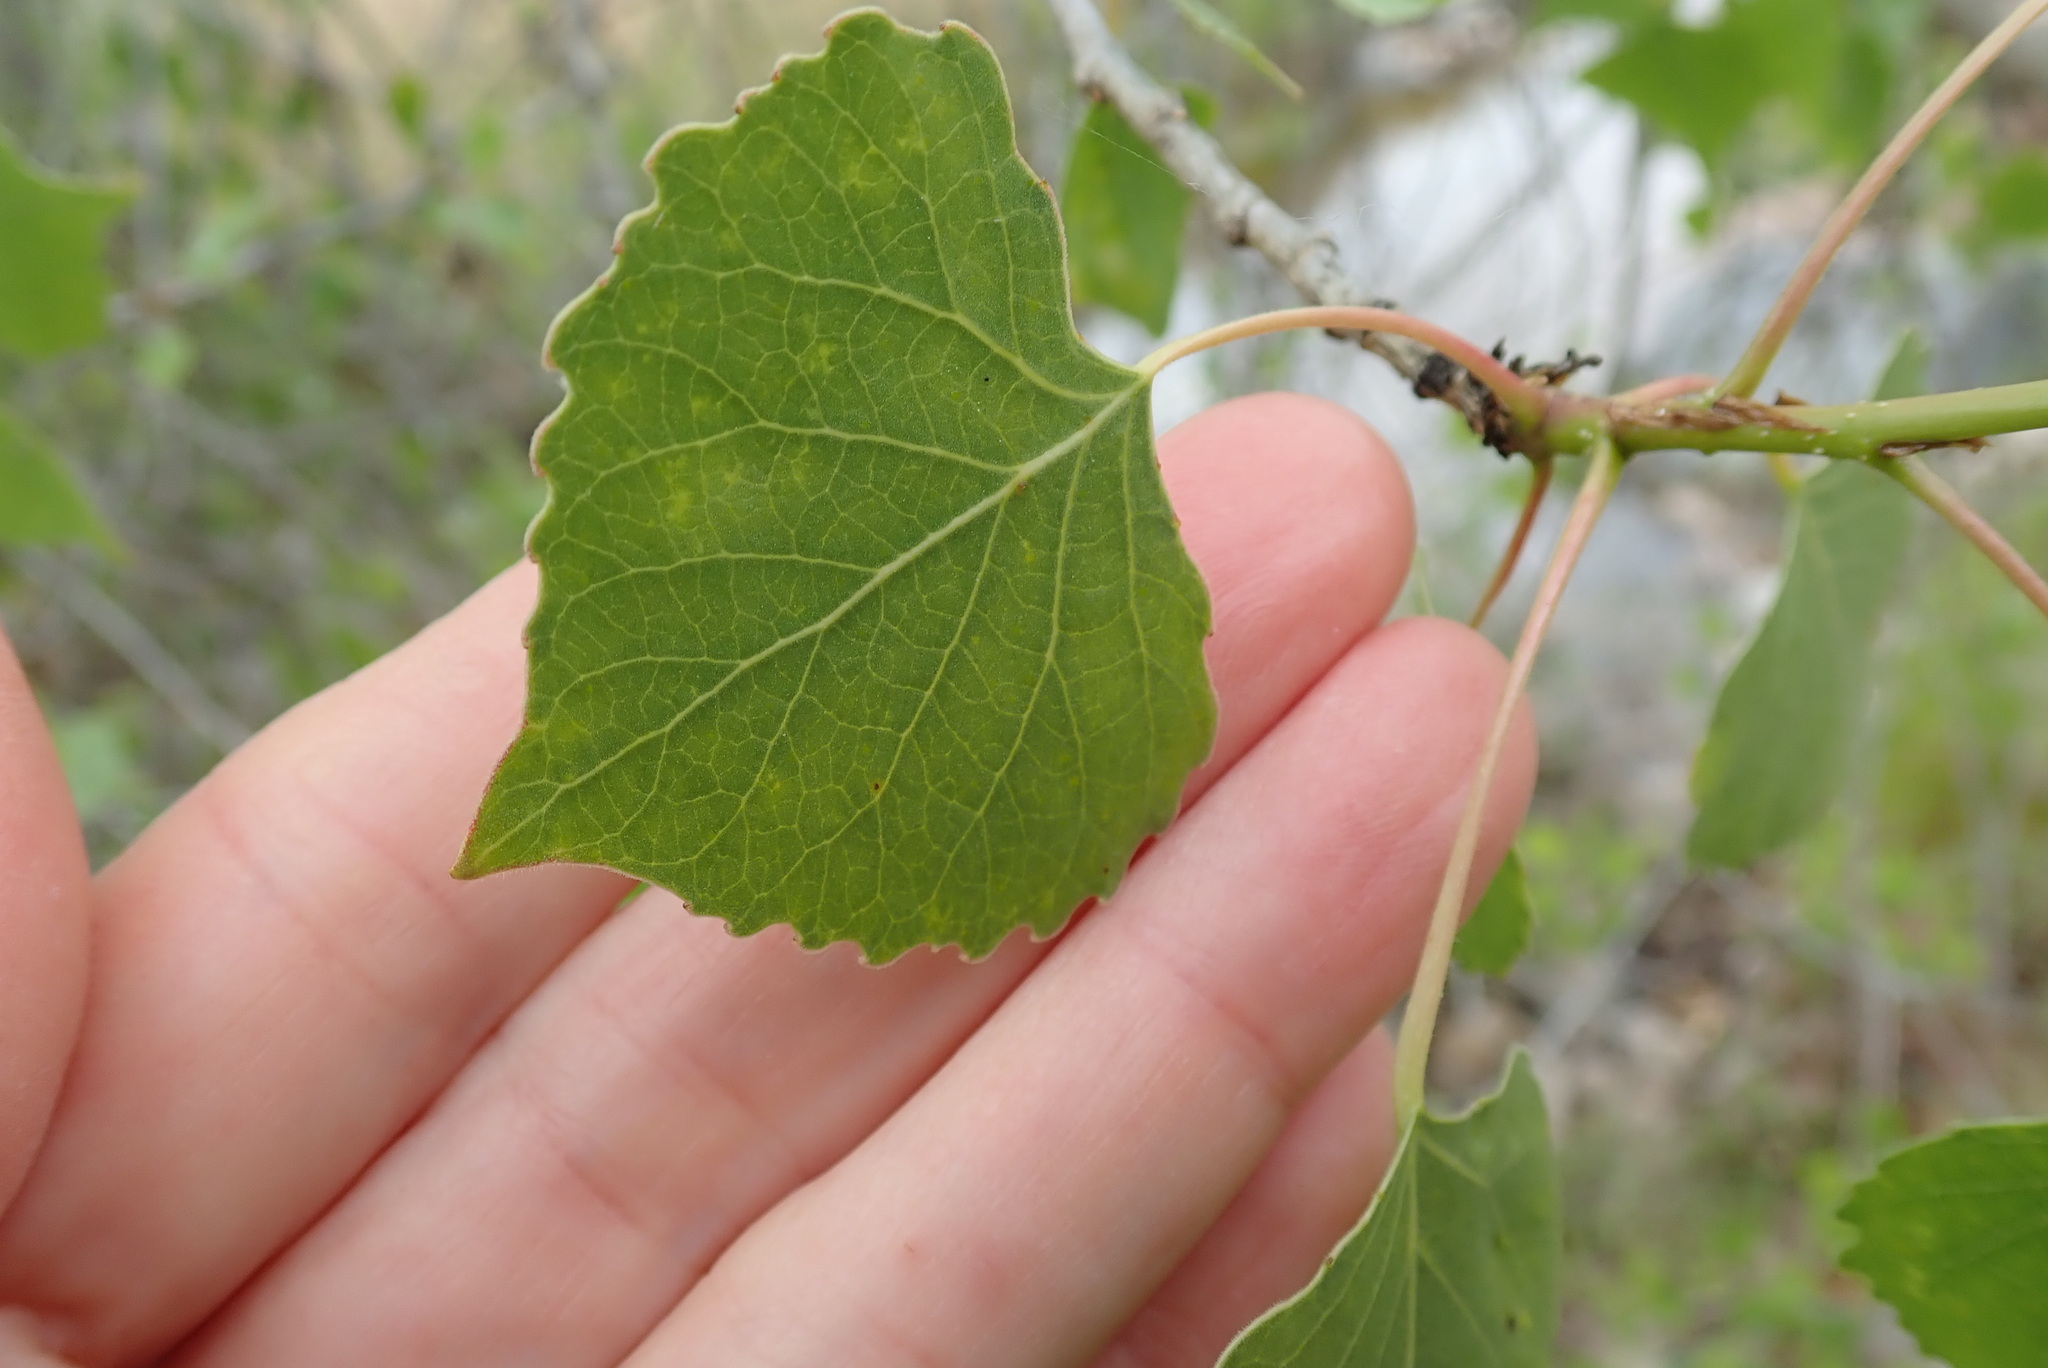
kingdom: Plantae
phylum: Tracheophyta
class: Magnoliopsida
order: Malpighiales
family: Salicaceae
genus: Populus
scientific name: Populus fremontii
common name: Fremont's cottonwood
